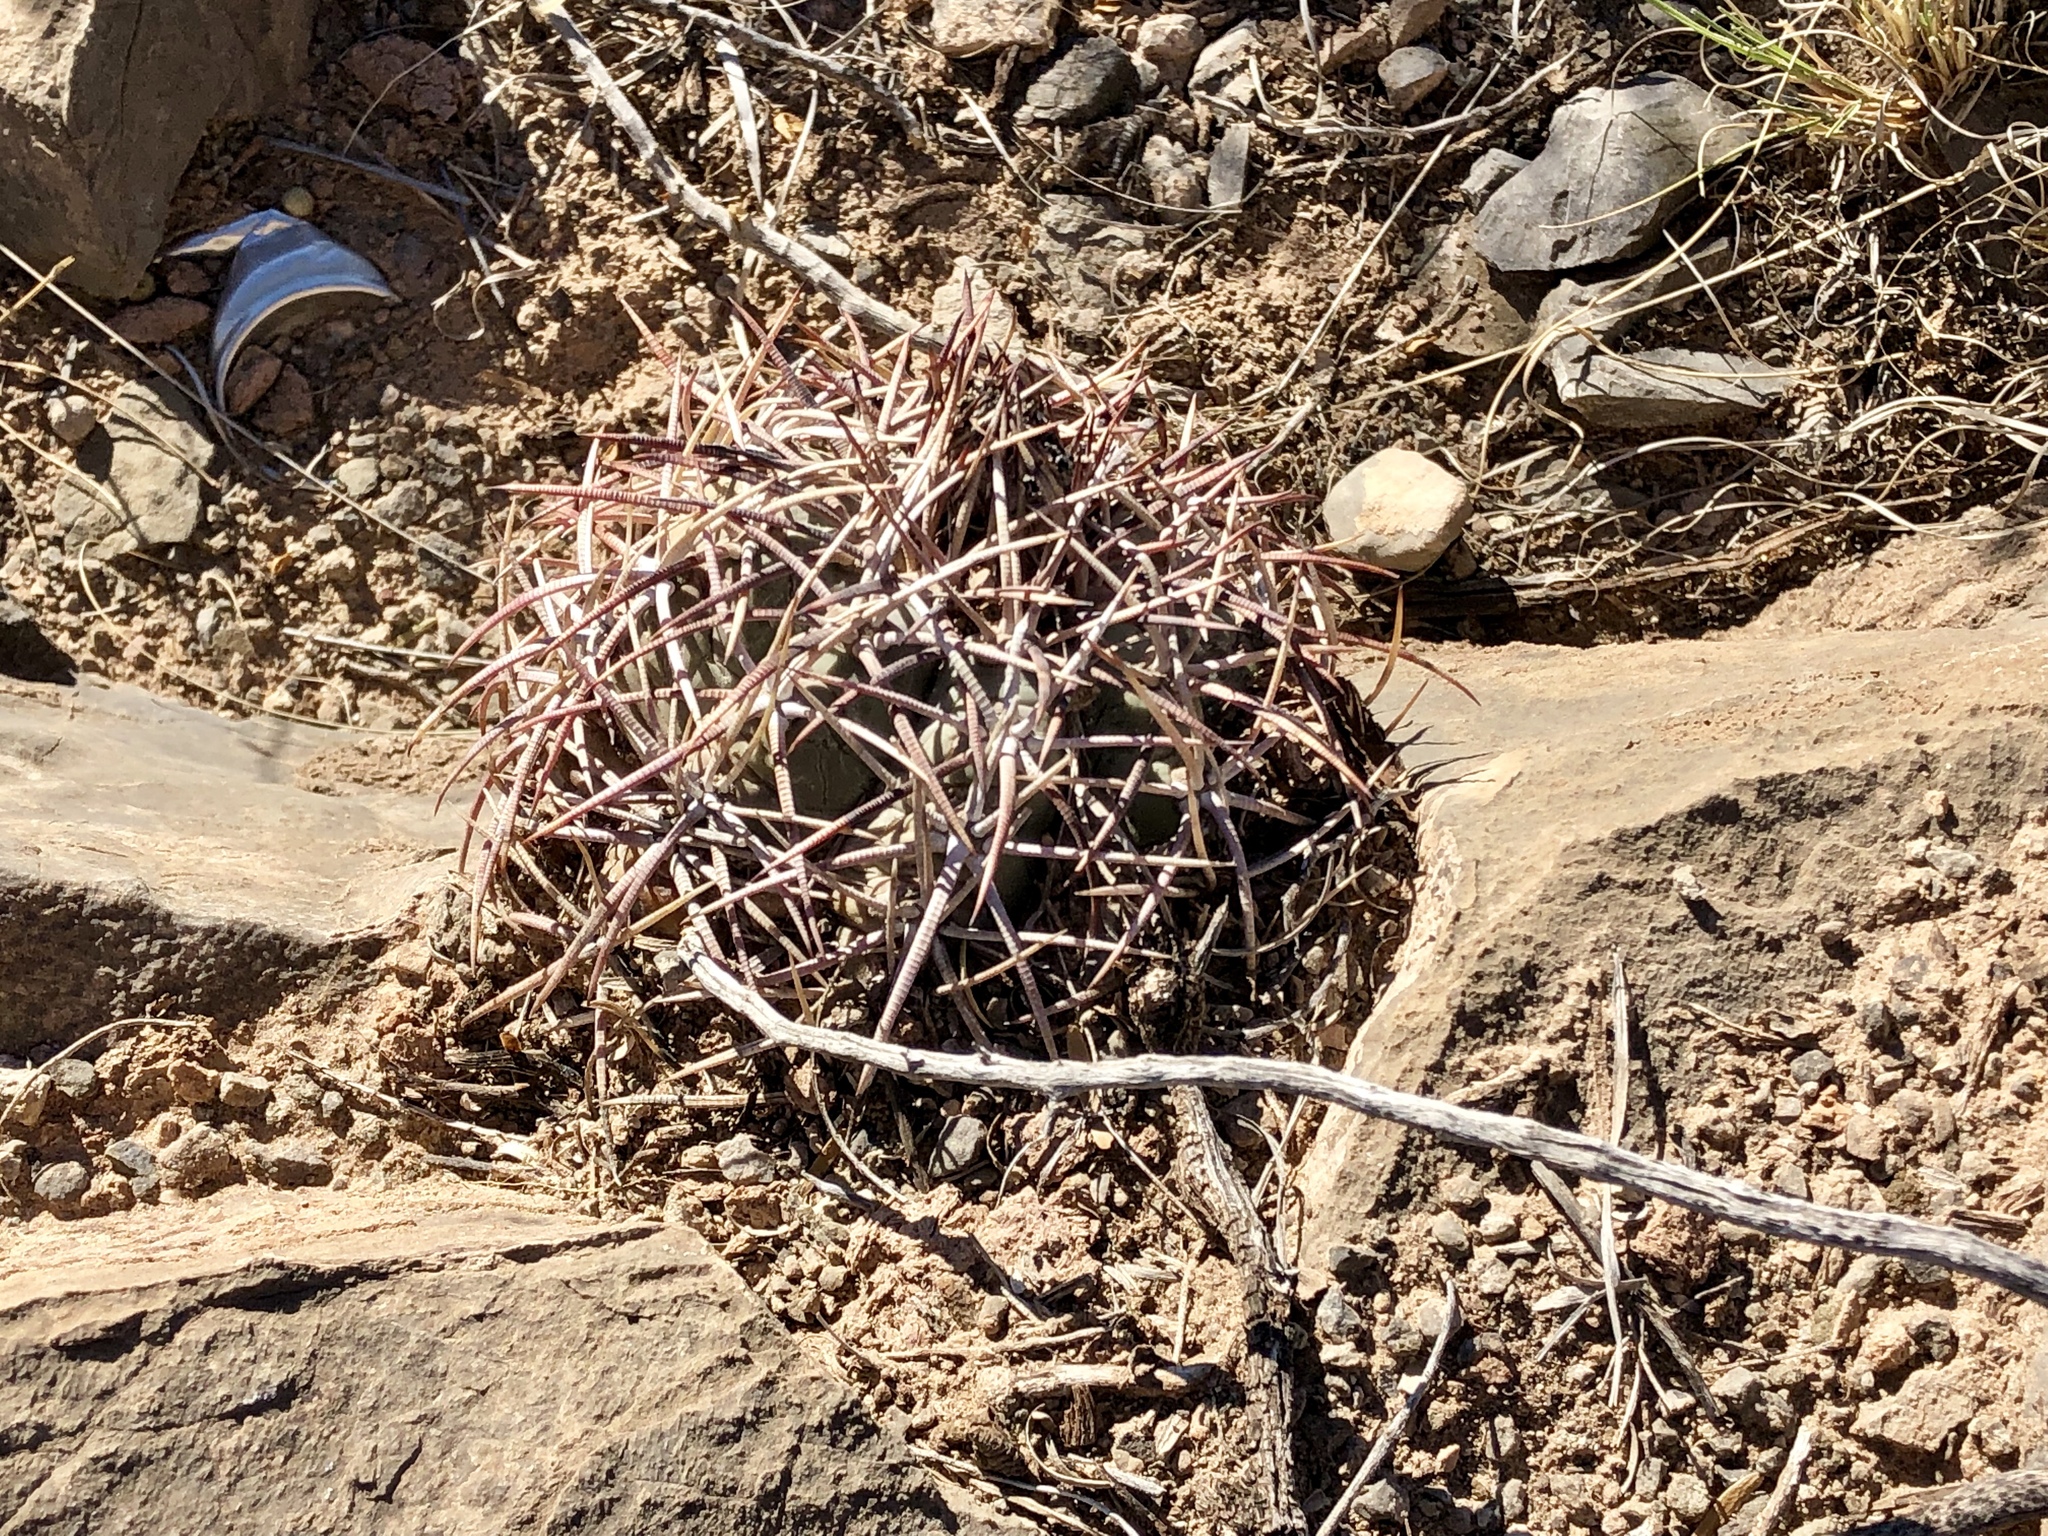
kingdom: Plantae
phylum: Tracheophyta
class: Magnoliopsida
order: Caryophyllales
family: Cactaceae
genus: Echinocactus
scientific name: Echinocactus horizonthalonius
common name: Devilshead
